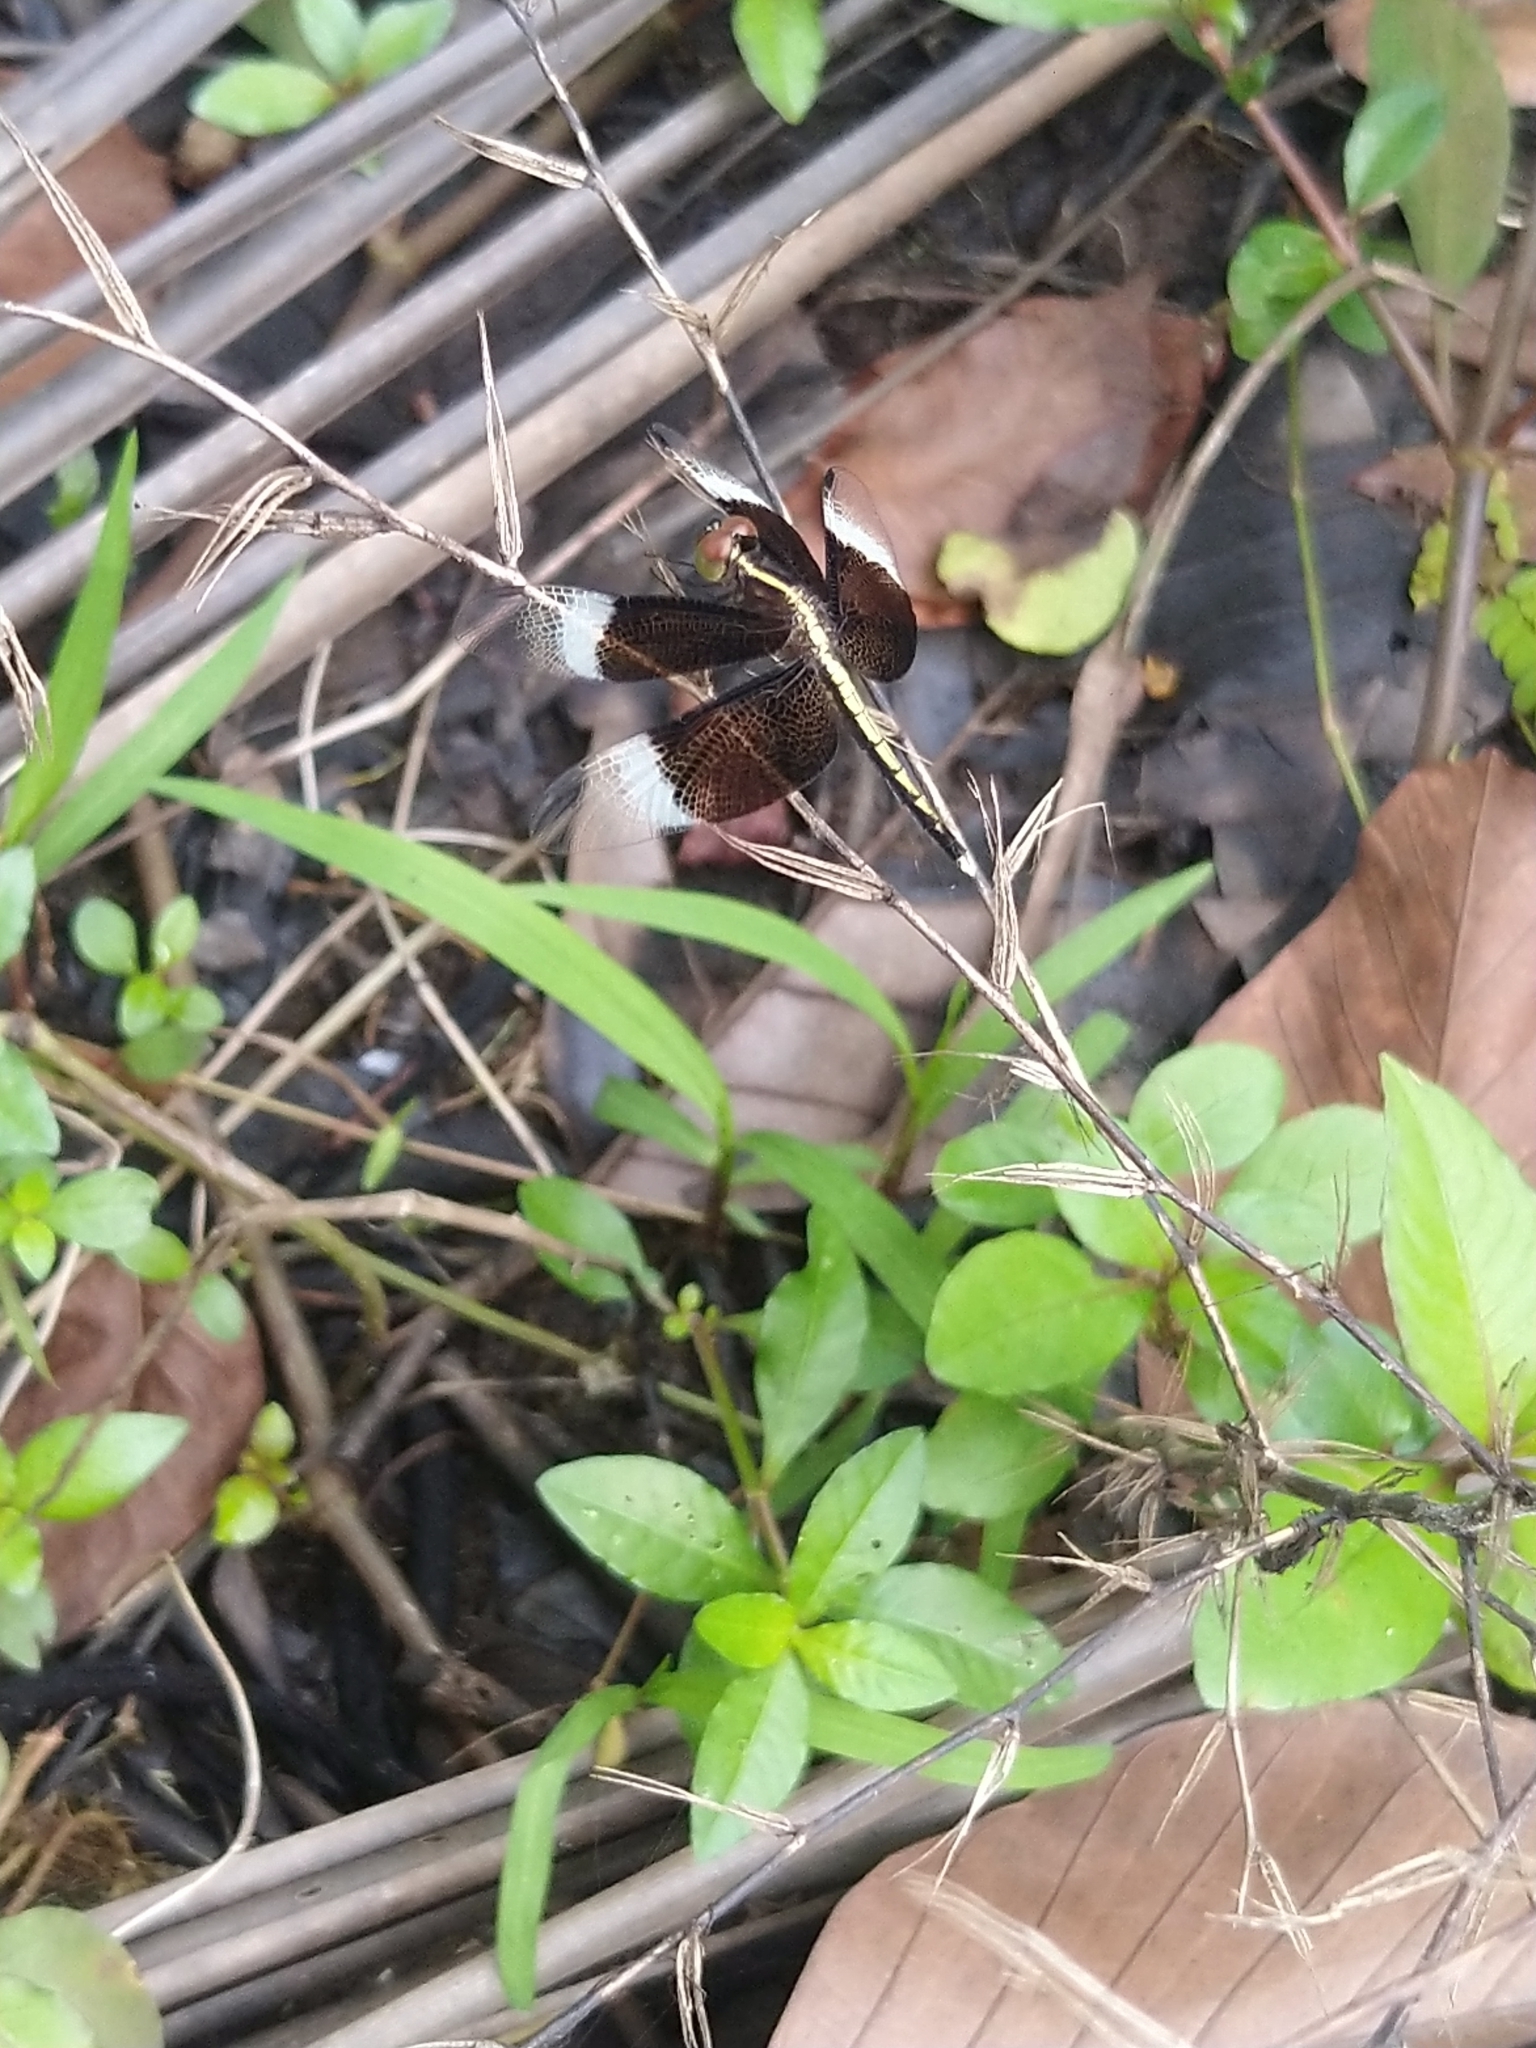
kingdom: Animalia
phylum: Arthropoda
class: Insecta
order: Odonata
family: Libellulidae
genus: Neurothemis
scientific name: Neurothemis tullia
